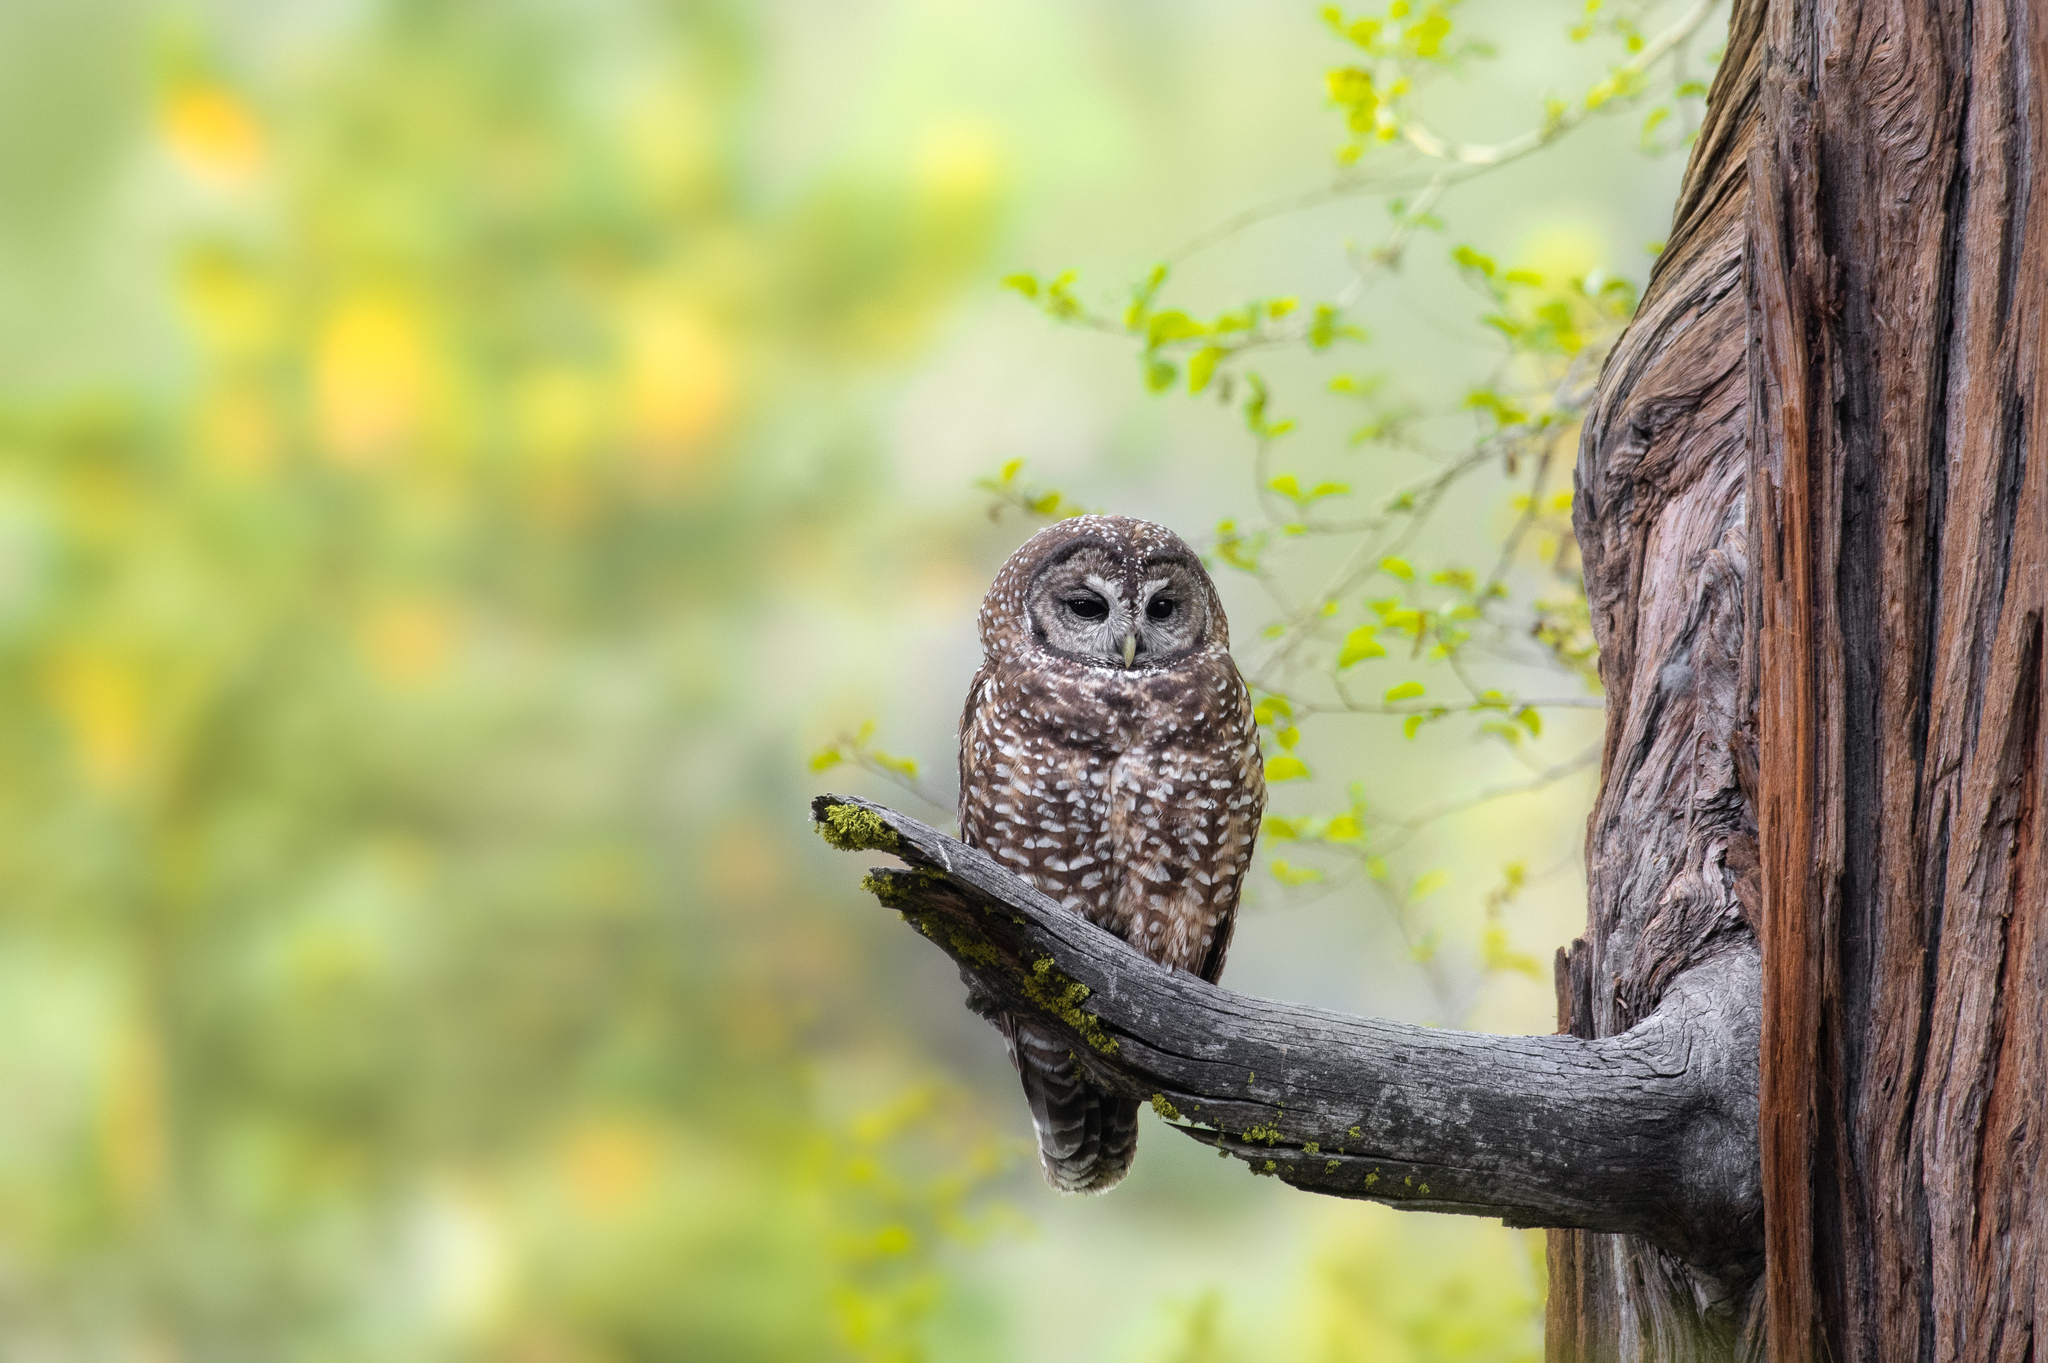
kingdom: Animalia
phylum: Chordata
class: Aves
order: Strigiformes
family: Strigidae
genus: Strix
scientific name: Strix occidentalis
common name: Spotted owl
